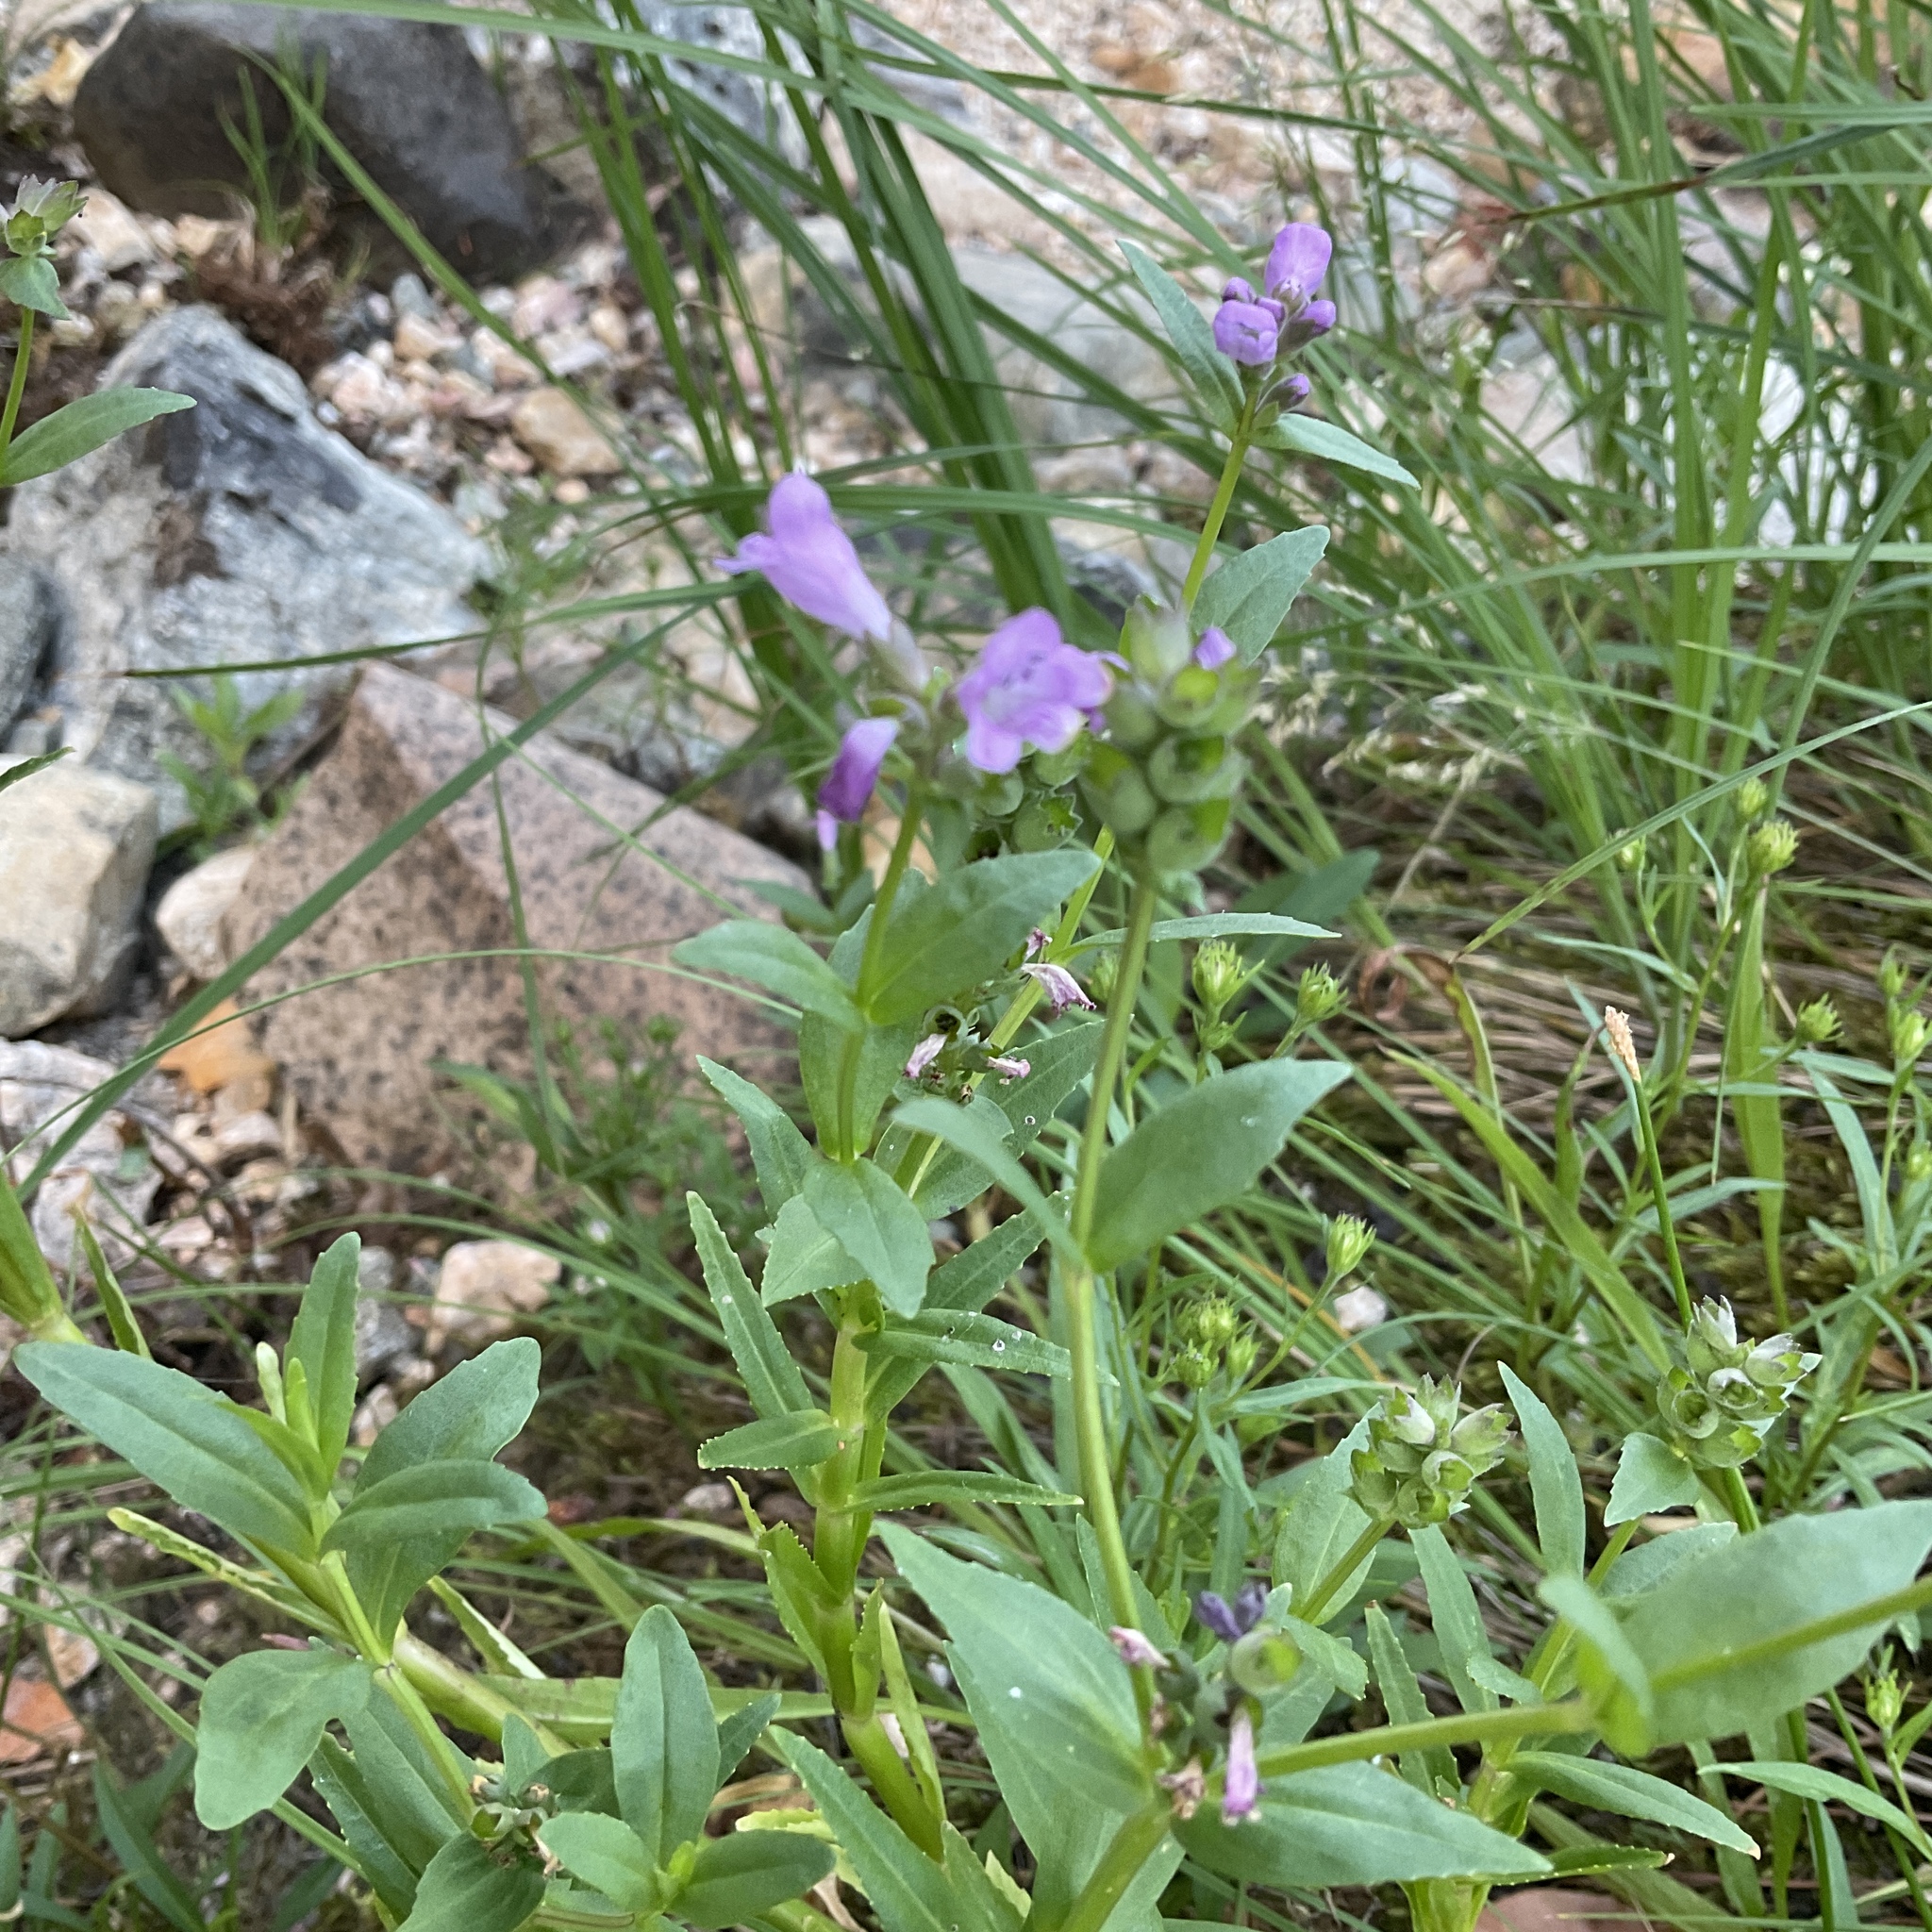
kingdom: Plantae
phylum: Tracheophyta
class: Magnoliopsida
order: Lamiales
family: Lamiaceae
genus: Physostegia
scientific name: Physostegia parviflora
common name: American dragonhead
